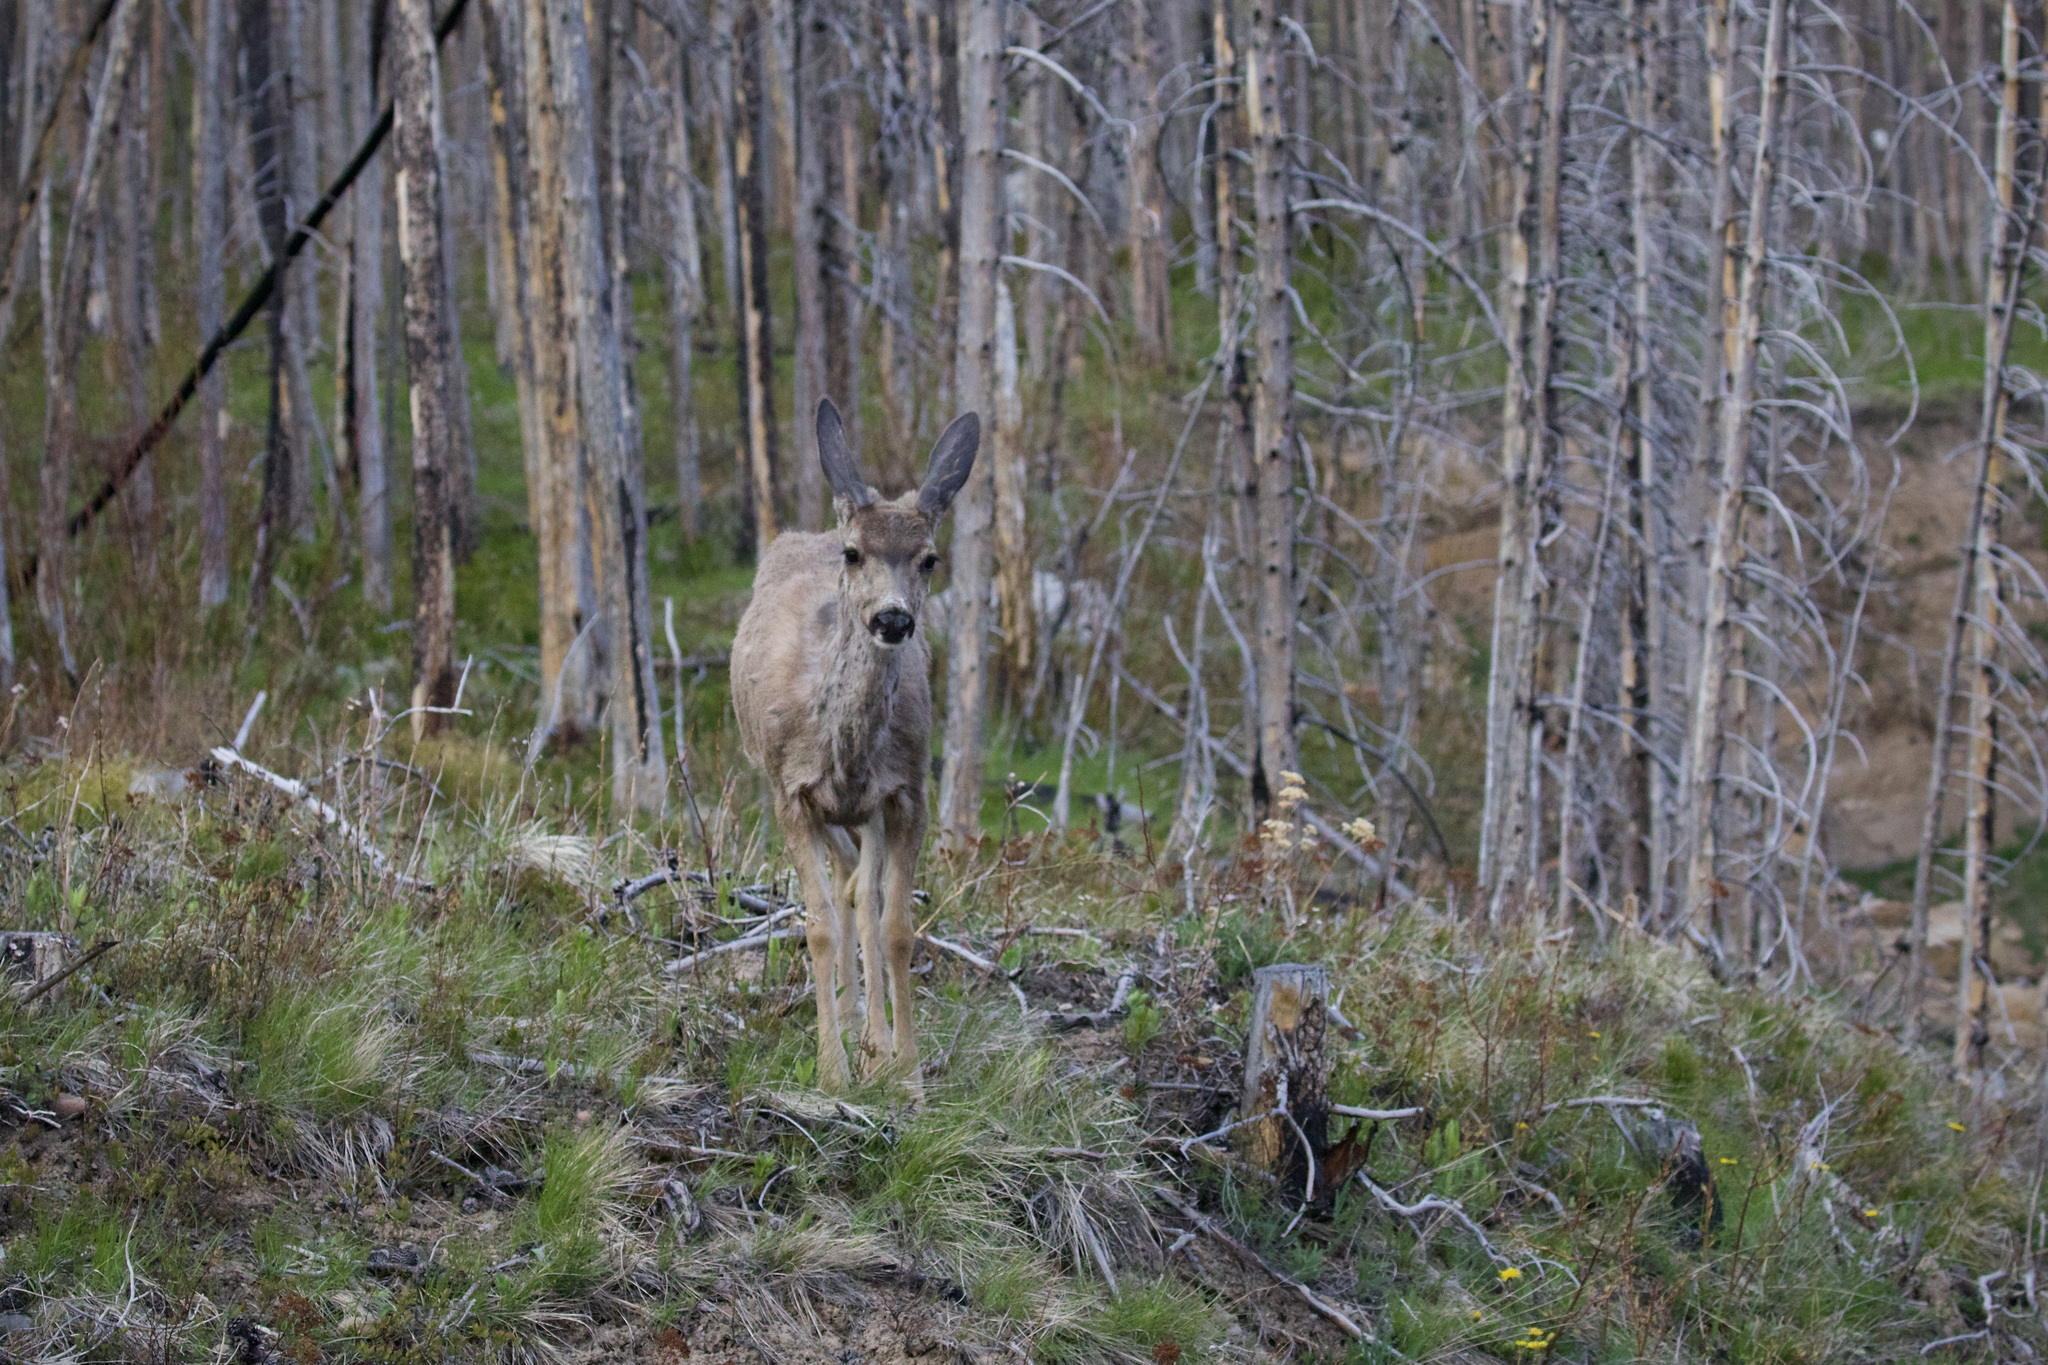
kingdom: Animalia
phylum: Chordata
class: Mammalia
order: Artiodactyla
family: Cervidae
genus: Odocoileus
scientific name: Odocoileus hemionus
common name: Mule deer
